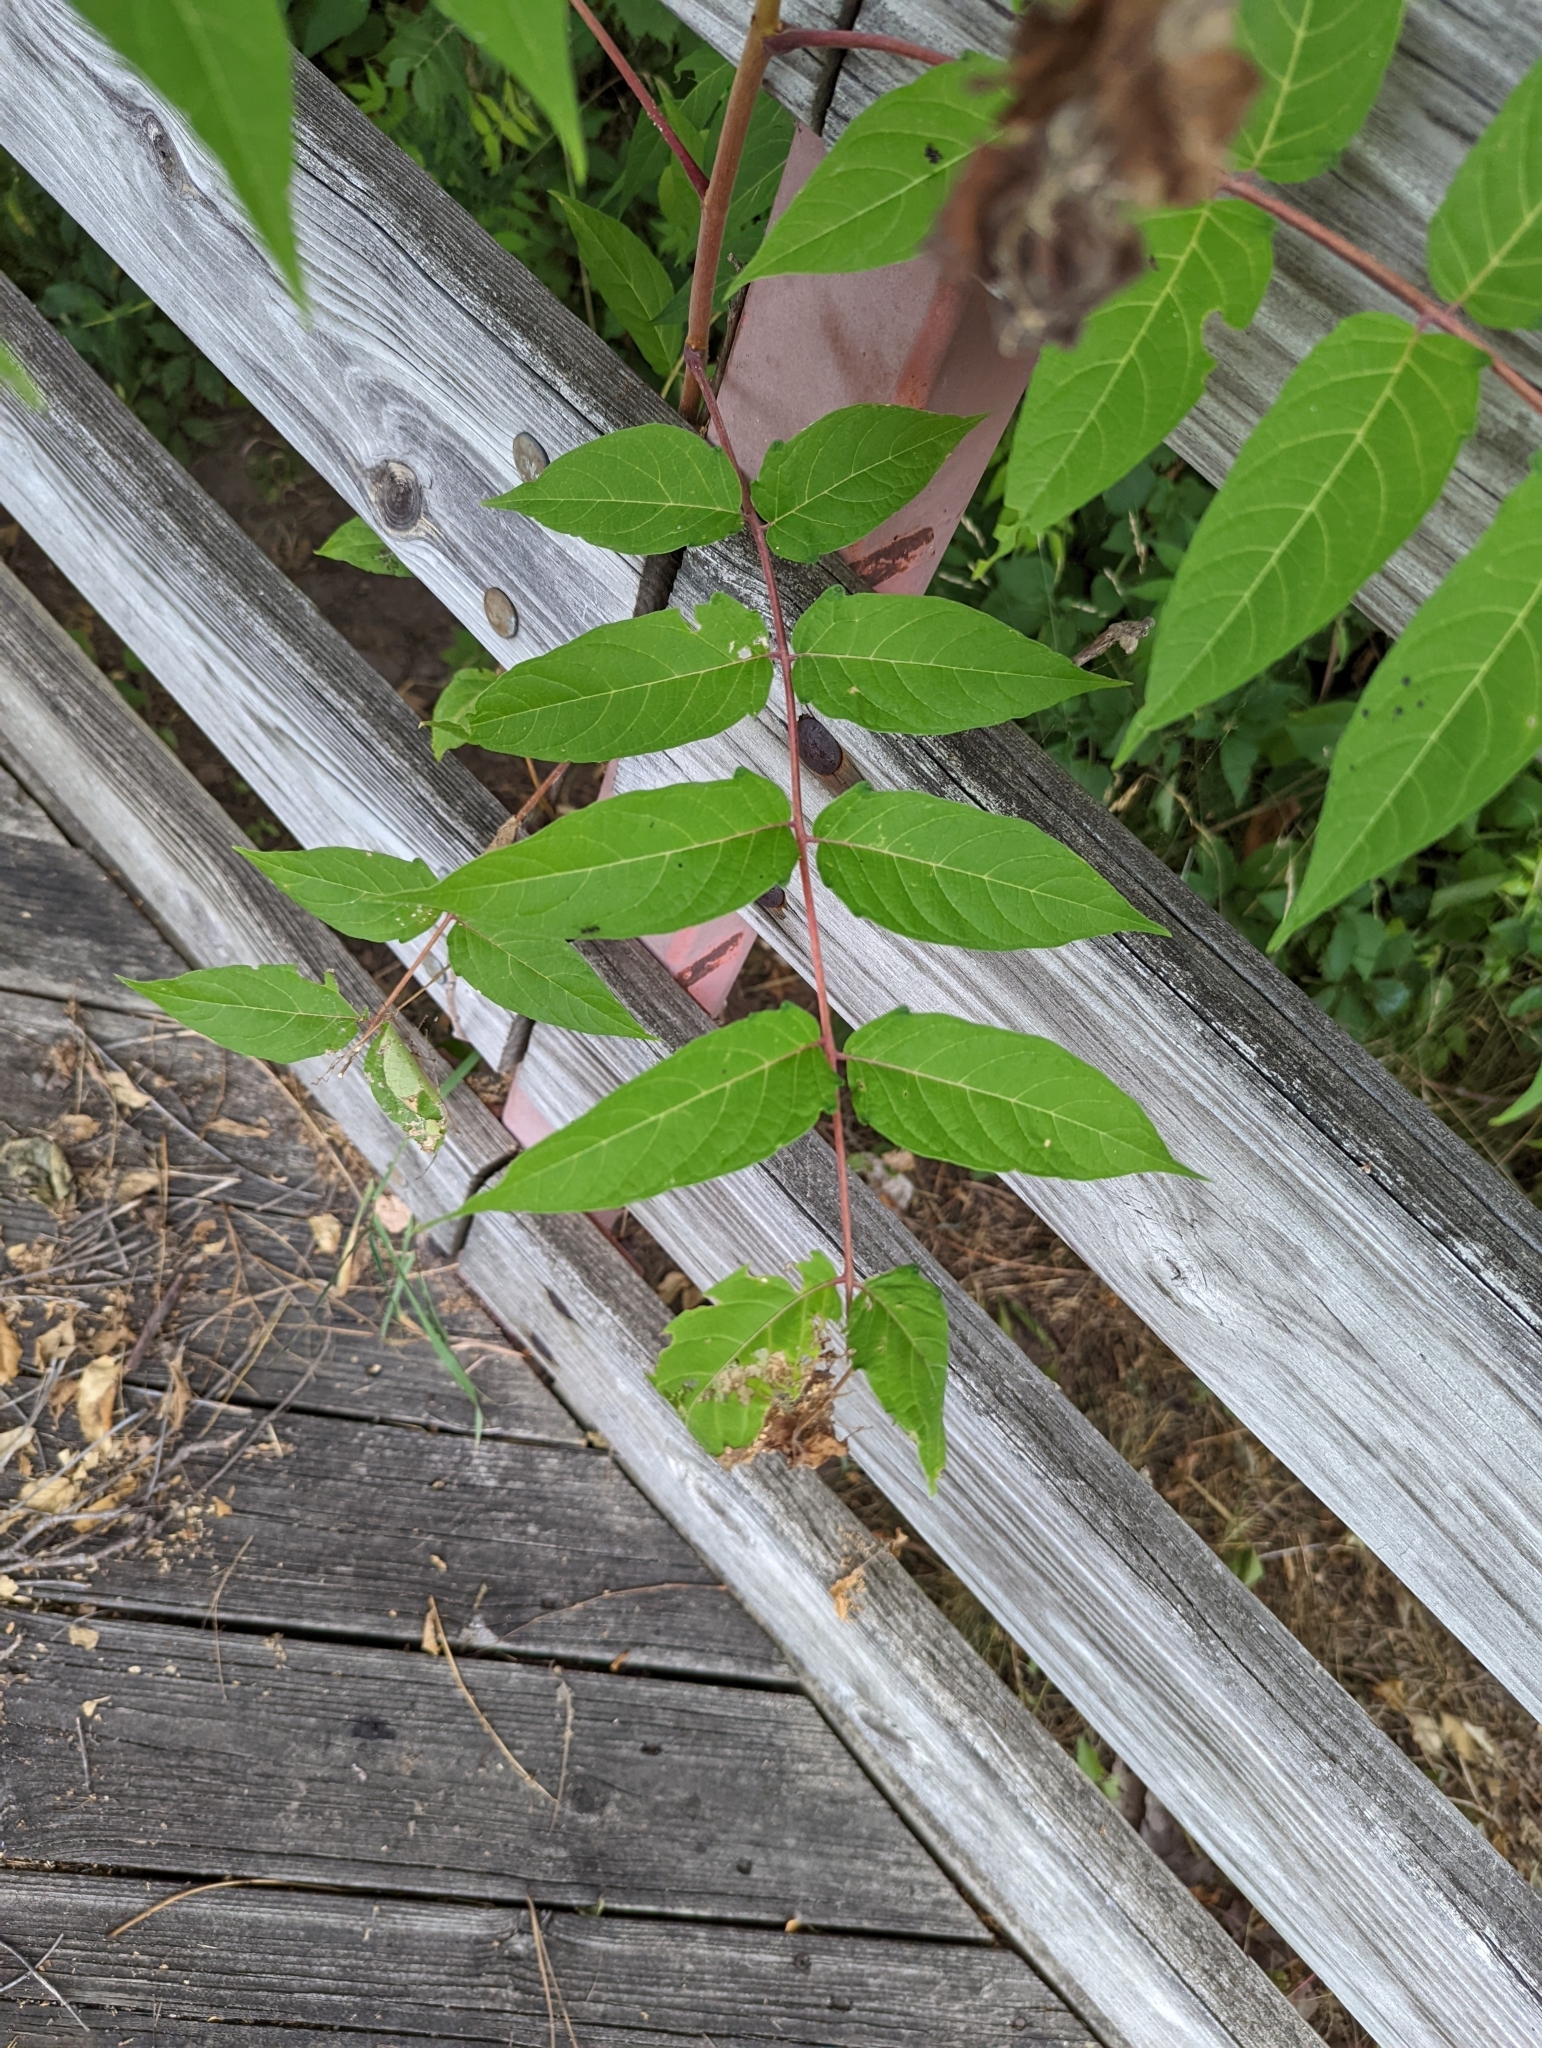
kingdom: Plantae
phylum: Tracheophyta
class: Magnoliopsida
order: Sapindales
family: Simaroubaceae
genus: Ailanthus
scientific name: Ailanthus altissima
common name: Tree-of-heaven
